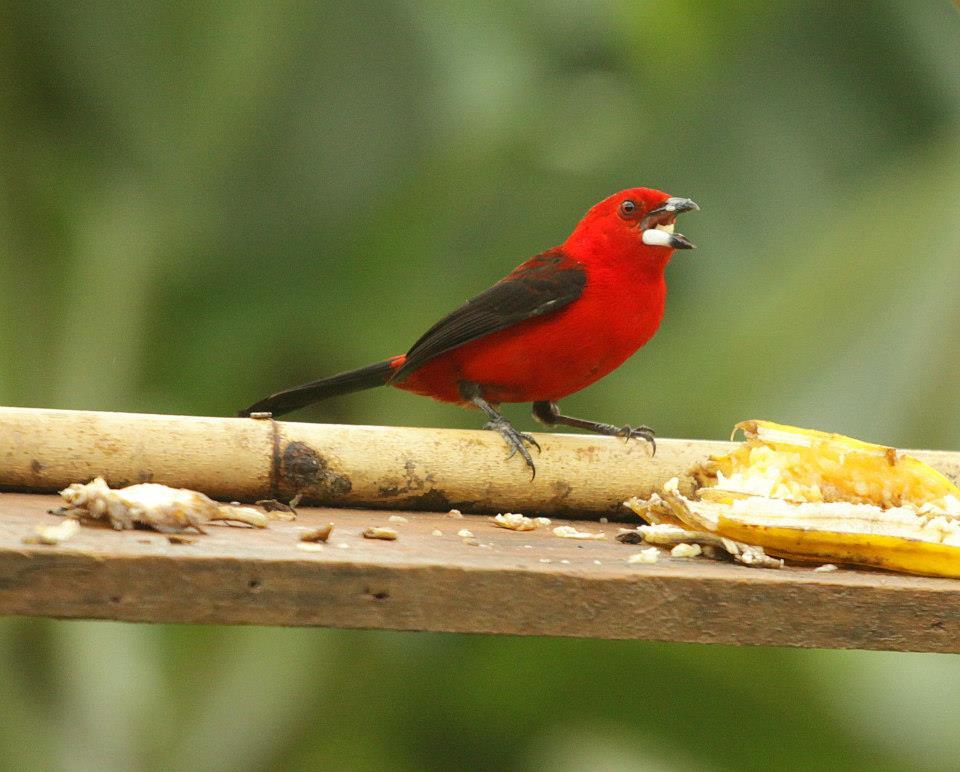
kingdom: Animalia
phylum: Chordata
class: Aves
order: Passeriformes
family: Thraupidae
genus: Ramphocelus
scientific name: Ramphocelus bresilia
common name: Brazilian tanager
